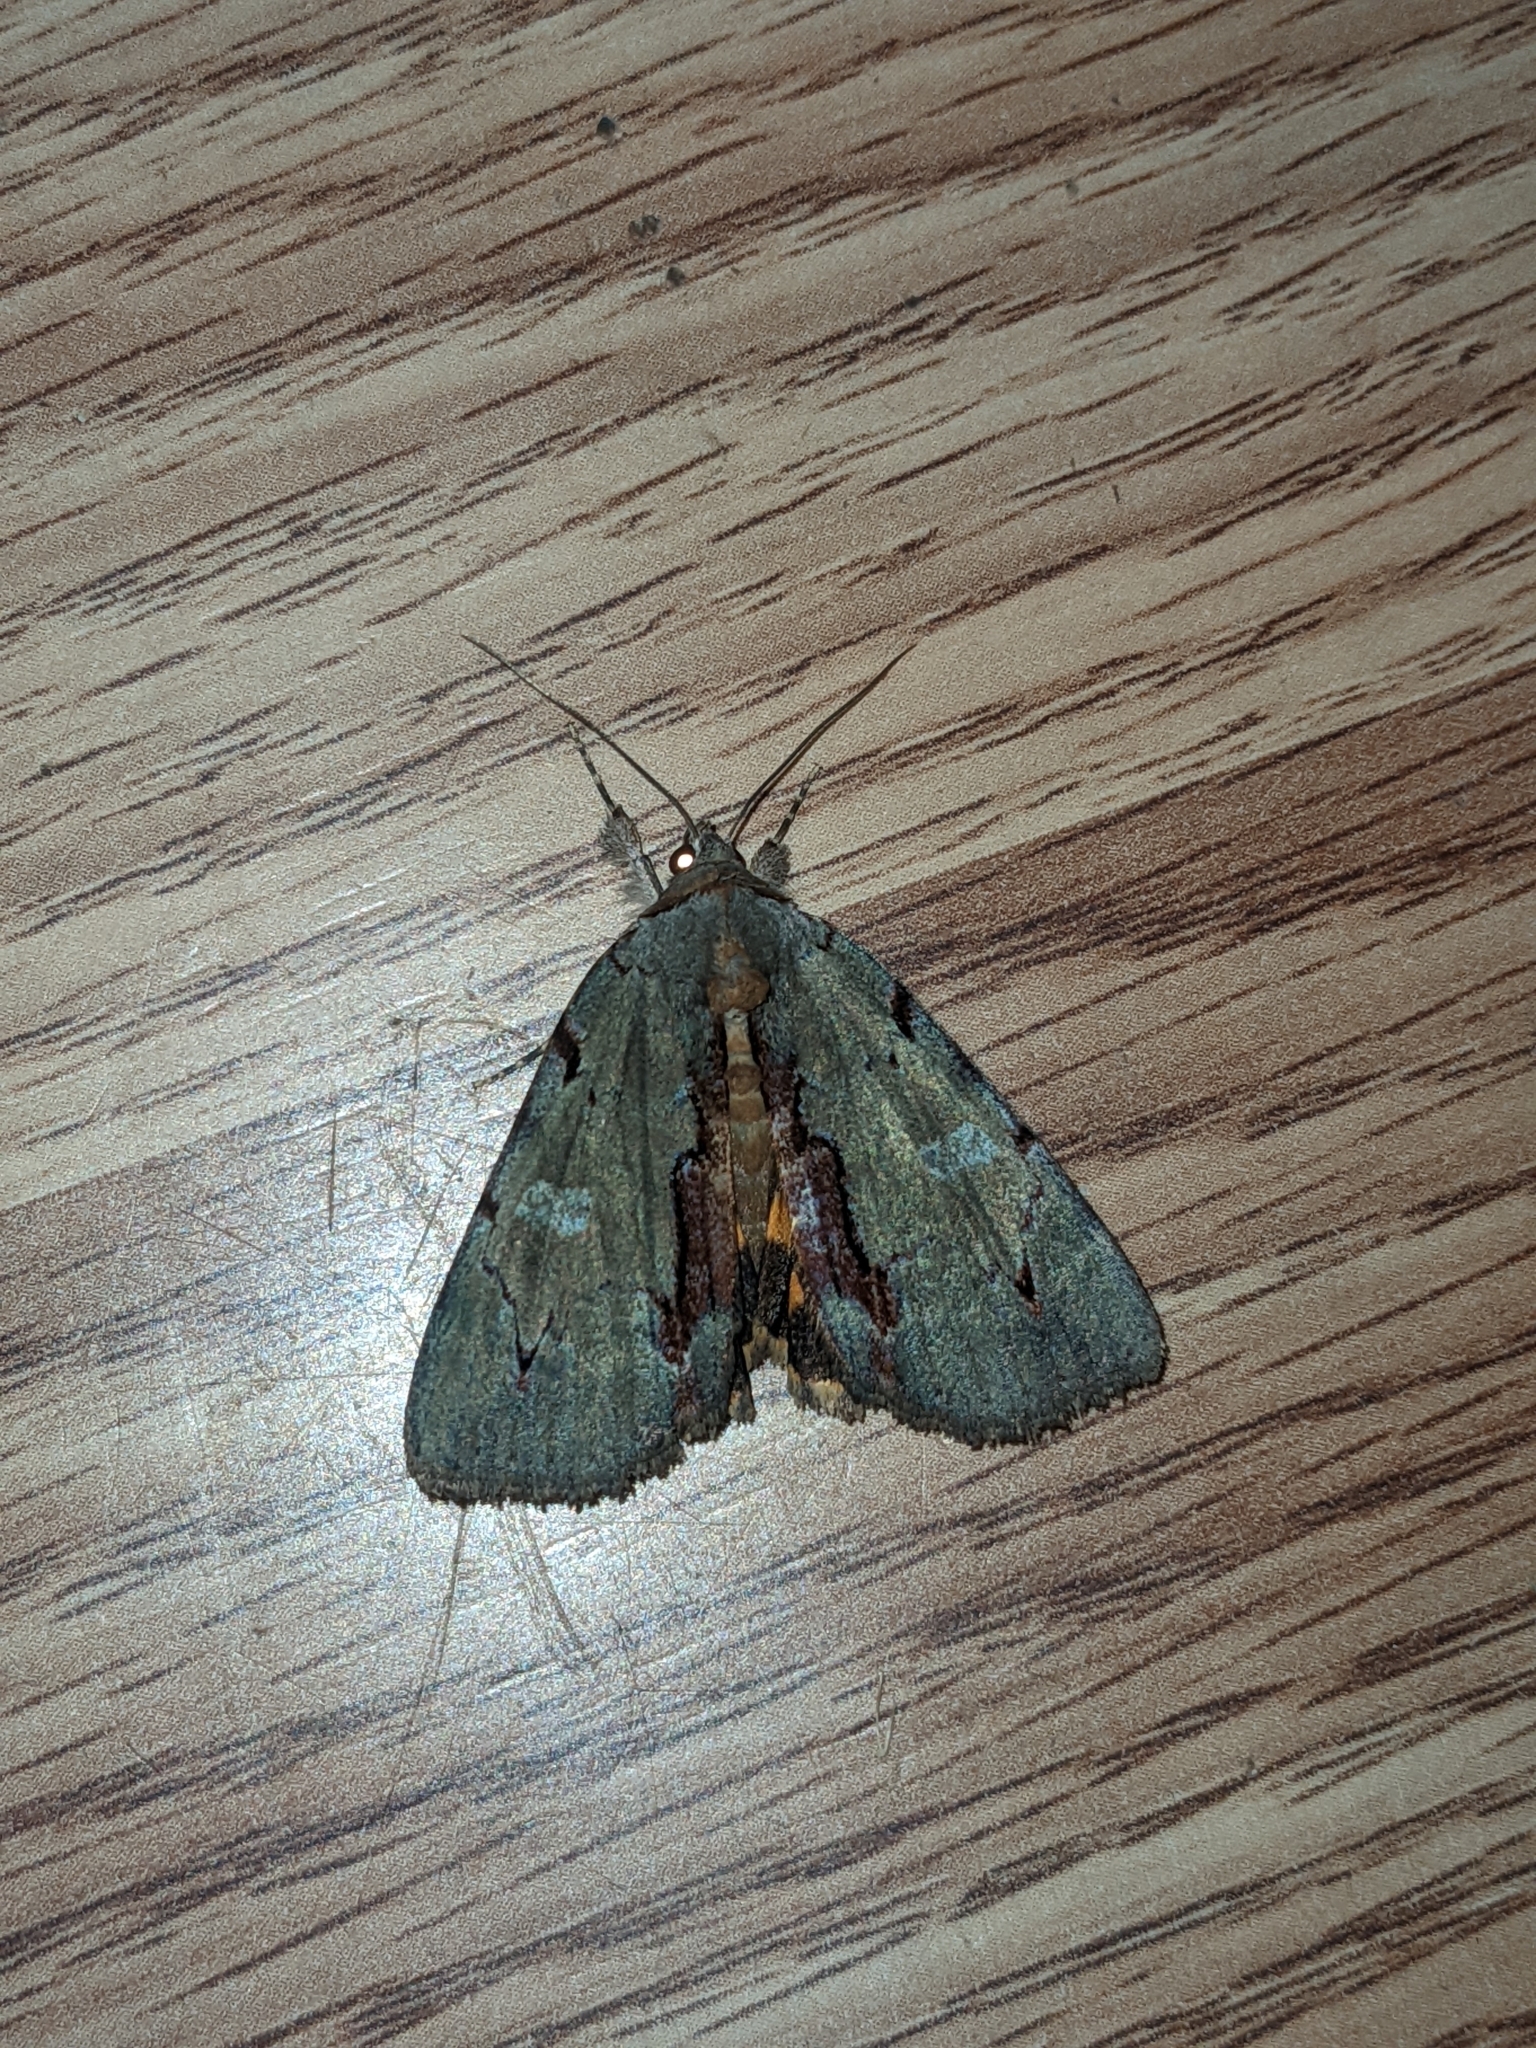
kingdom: Animalia
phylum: Arthropoda
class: Insecta
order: Lepidoptera
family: Erebidae
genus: Catocala
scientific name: Catocala grynea
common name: Woody underwing
